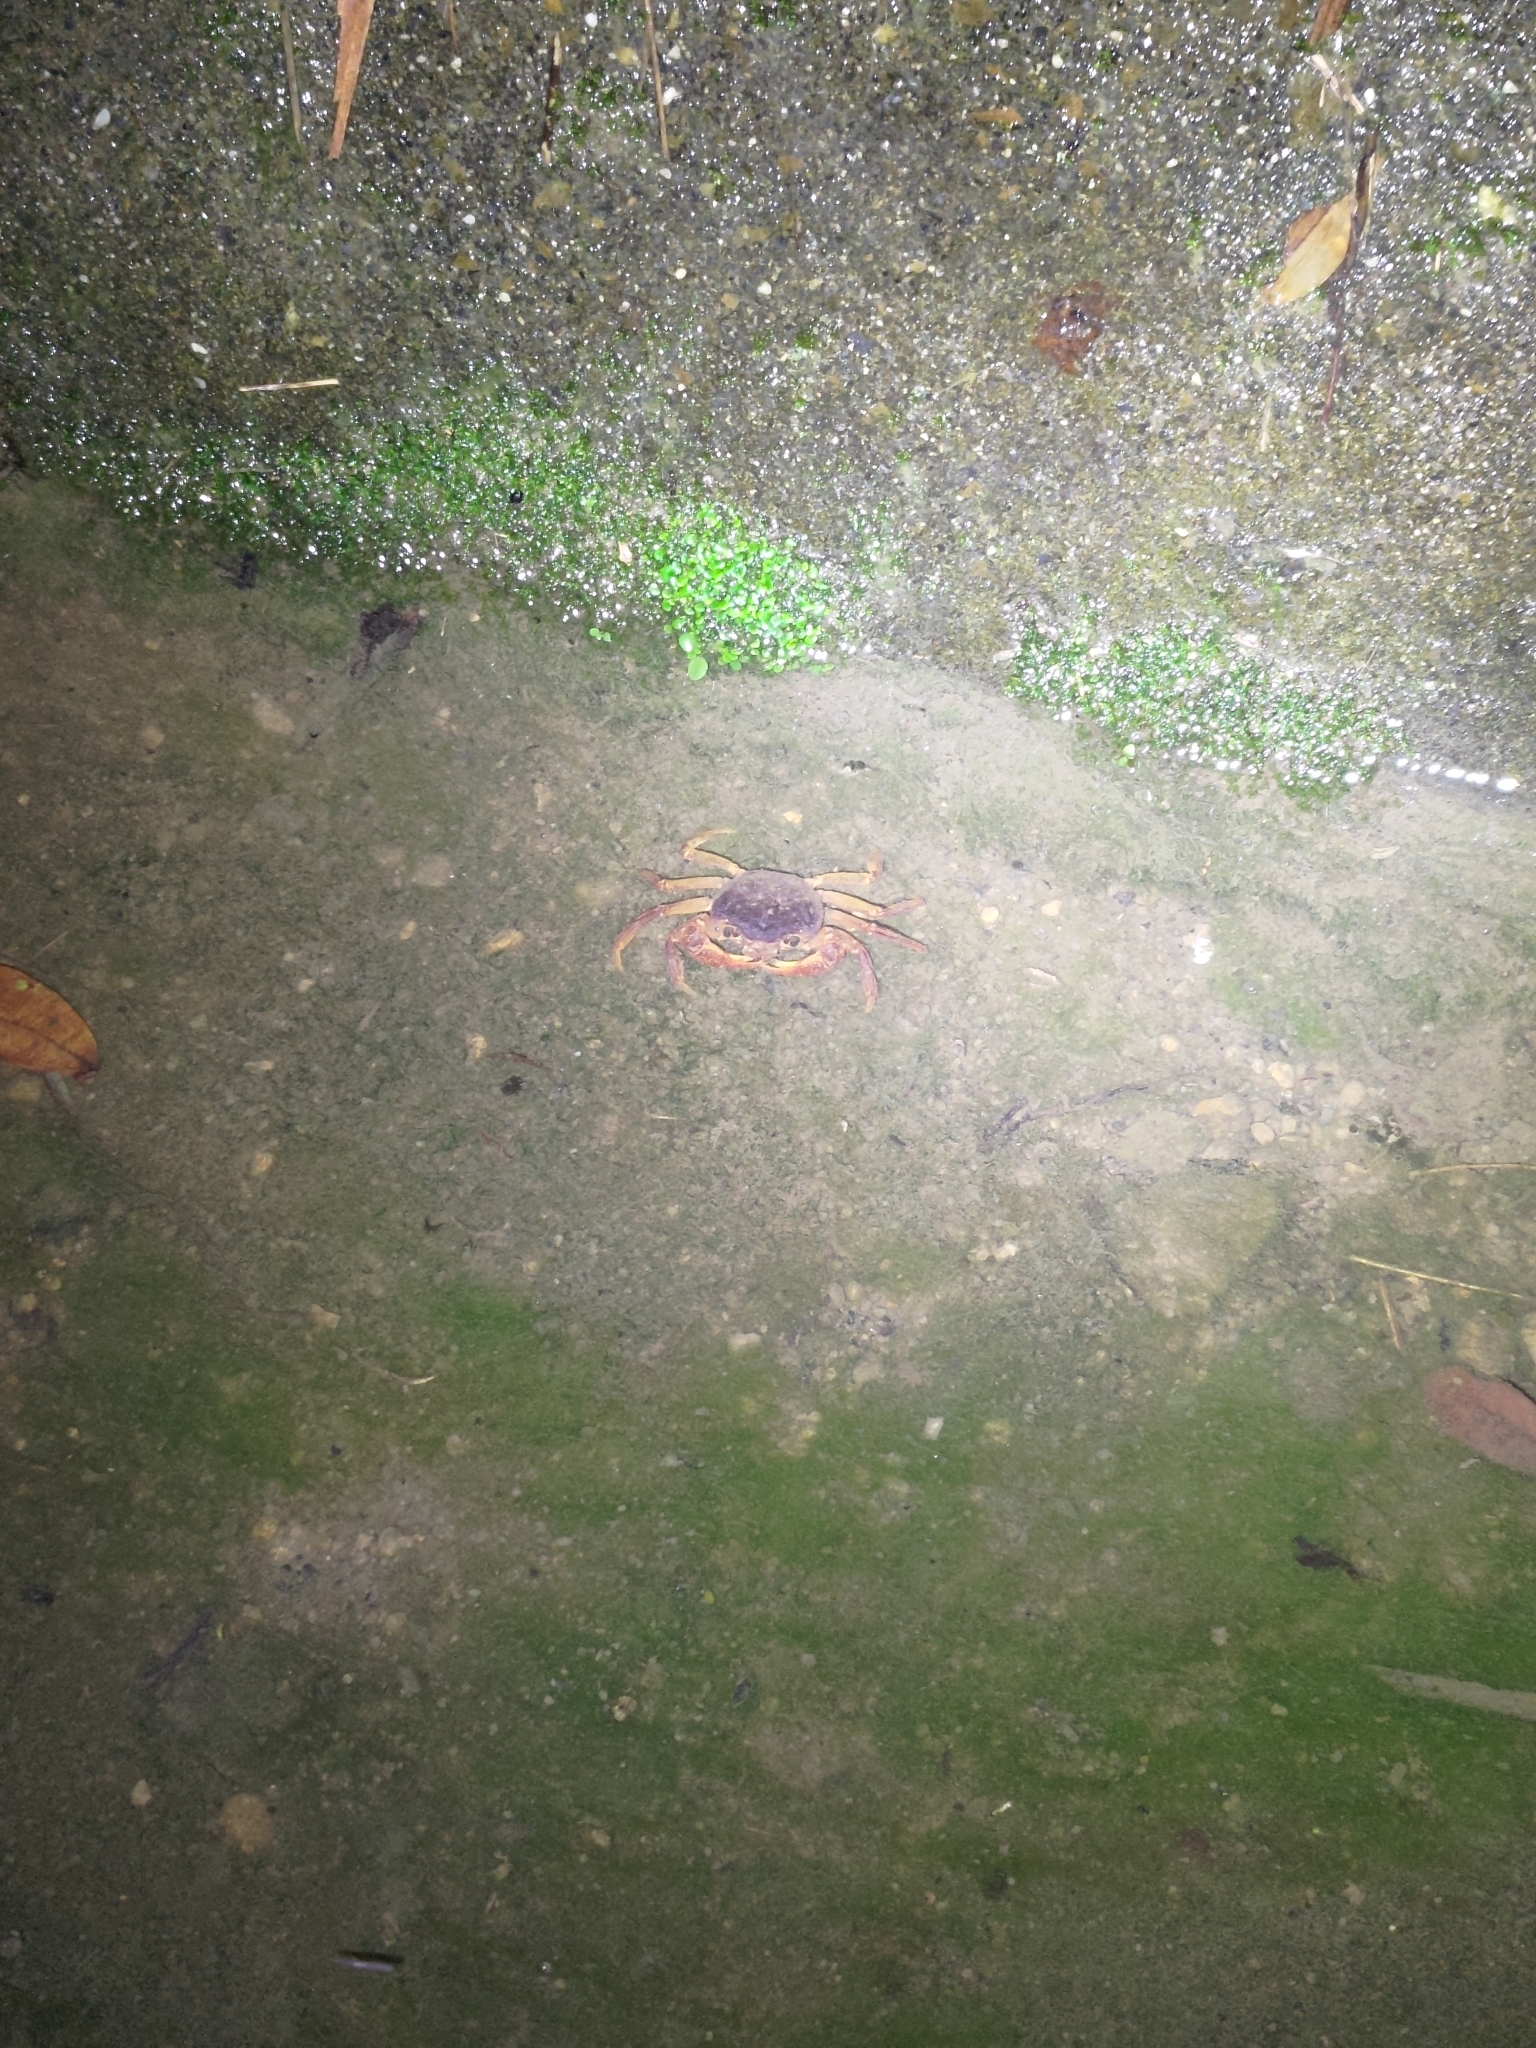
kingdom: Animalia
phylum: Arthropoda
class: Malacostraca
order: Decapoda
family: Potamidae
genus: Candidiopotamon
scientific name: Candidiopotamon rathbuni
